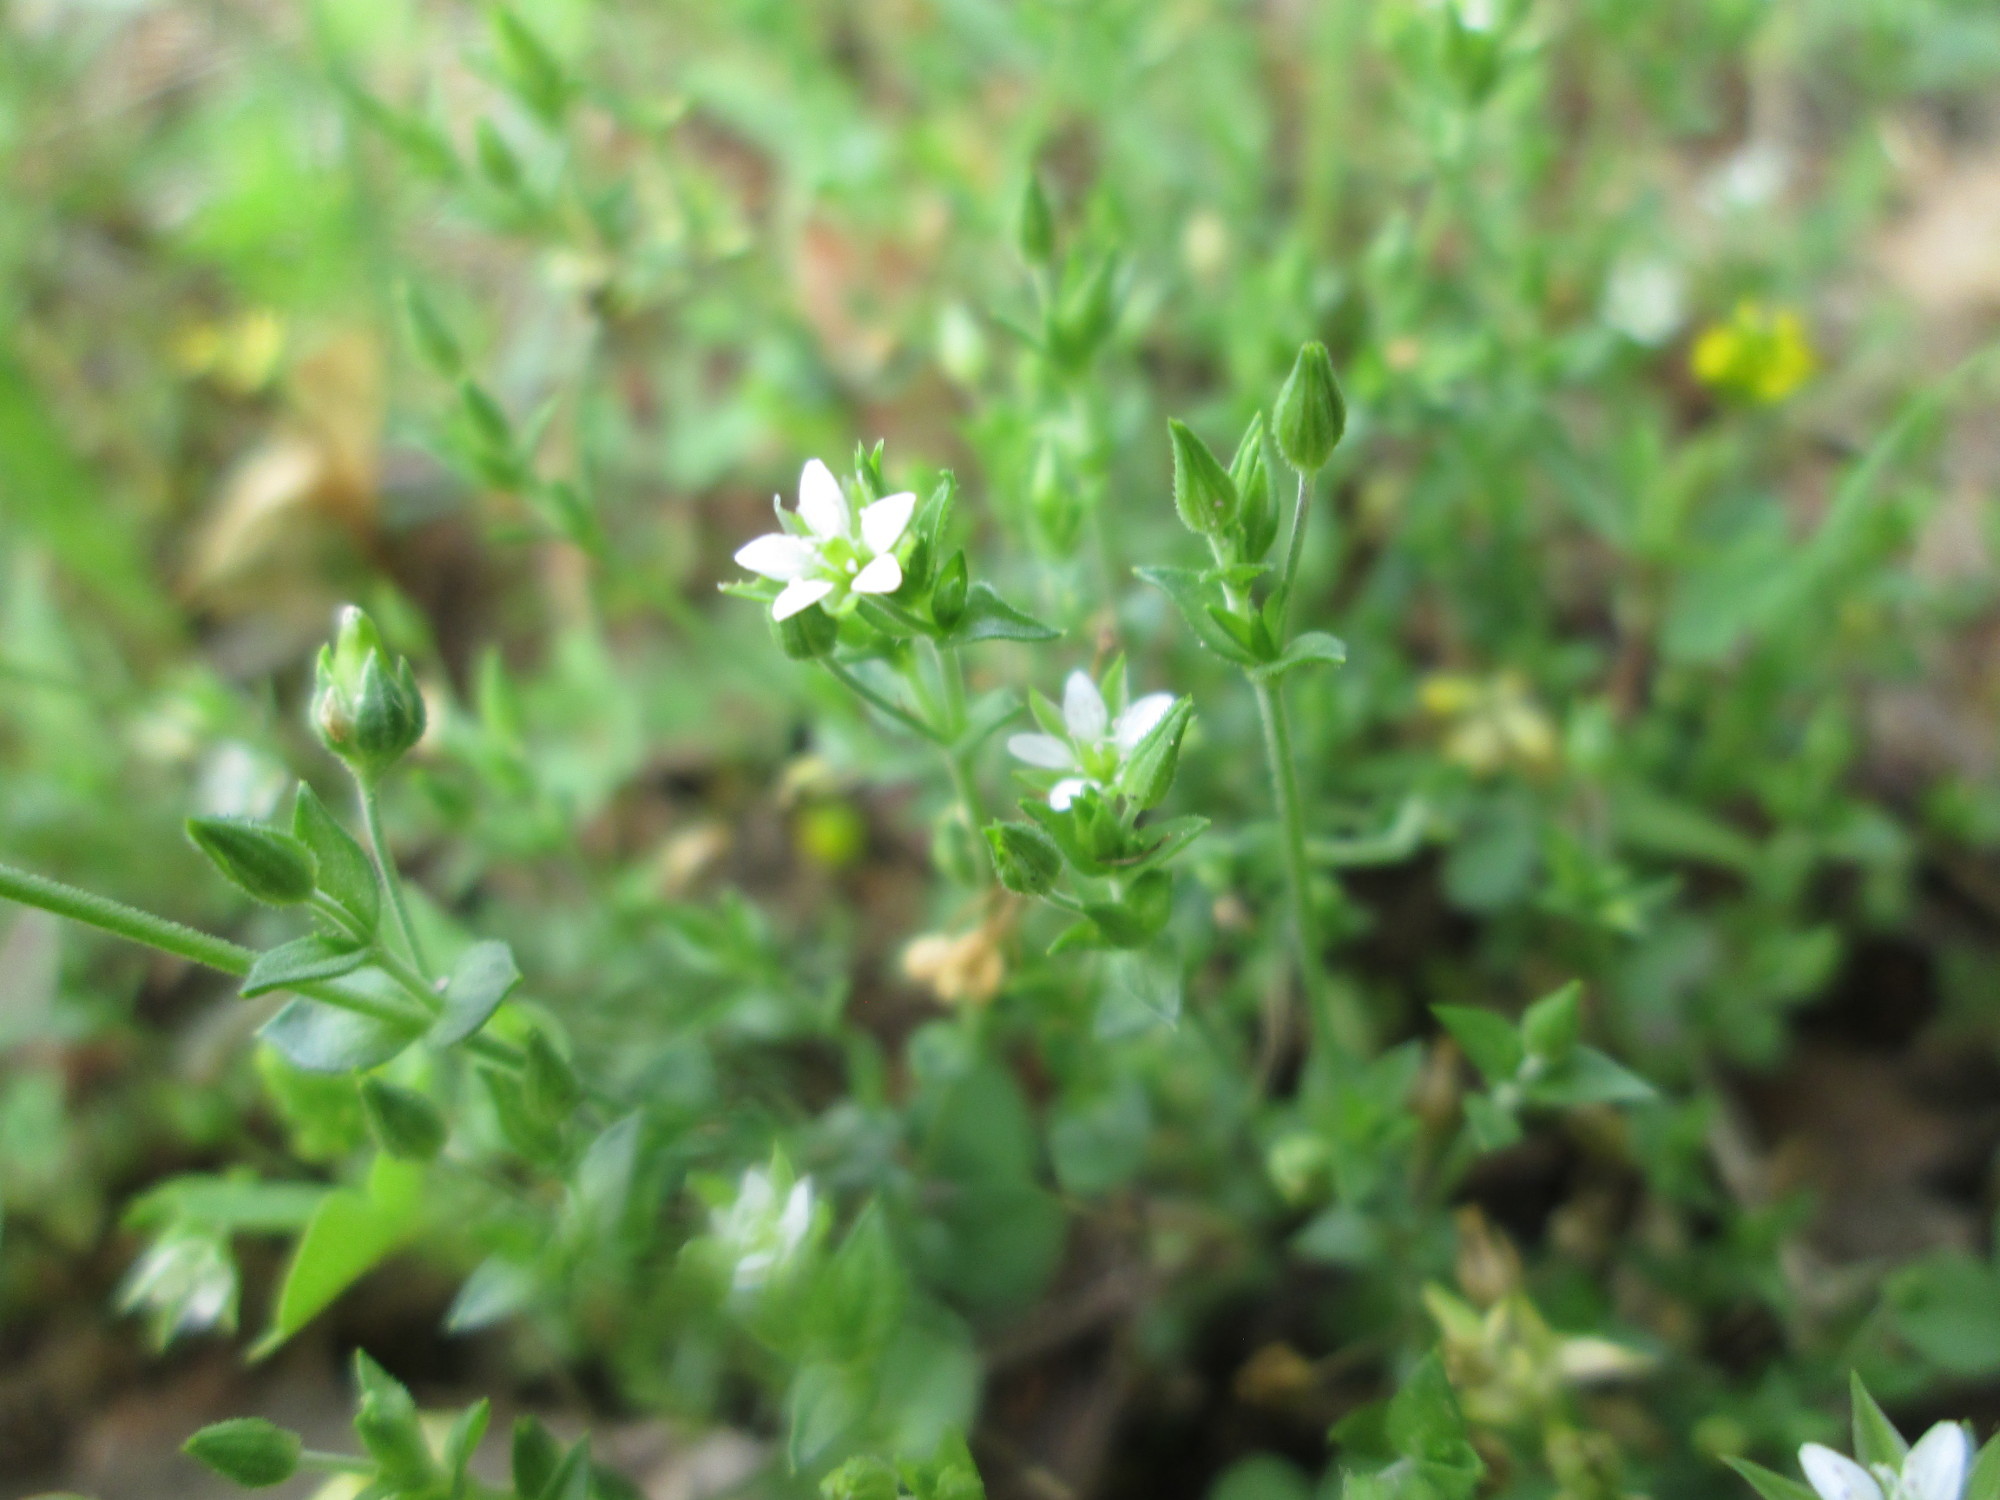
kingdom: Plantae
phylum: Tracheophyta
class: Magnoliopsida
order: Caryophyllales
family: Caryophyllaceae
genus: Arenaria
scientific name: Arenaria serpyllifolia
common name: Thyme-leaved sandwort
